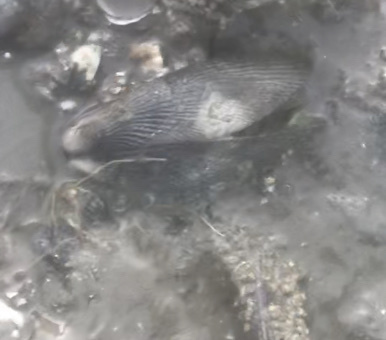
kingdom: Animalia
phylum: Mollusca
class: Bivalvia
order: Mytilida
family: Mytilidae
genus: Geukensia
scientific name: Geukensia demissa
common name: Ribbed mussel
